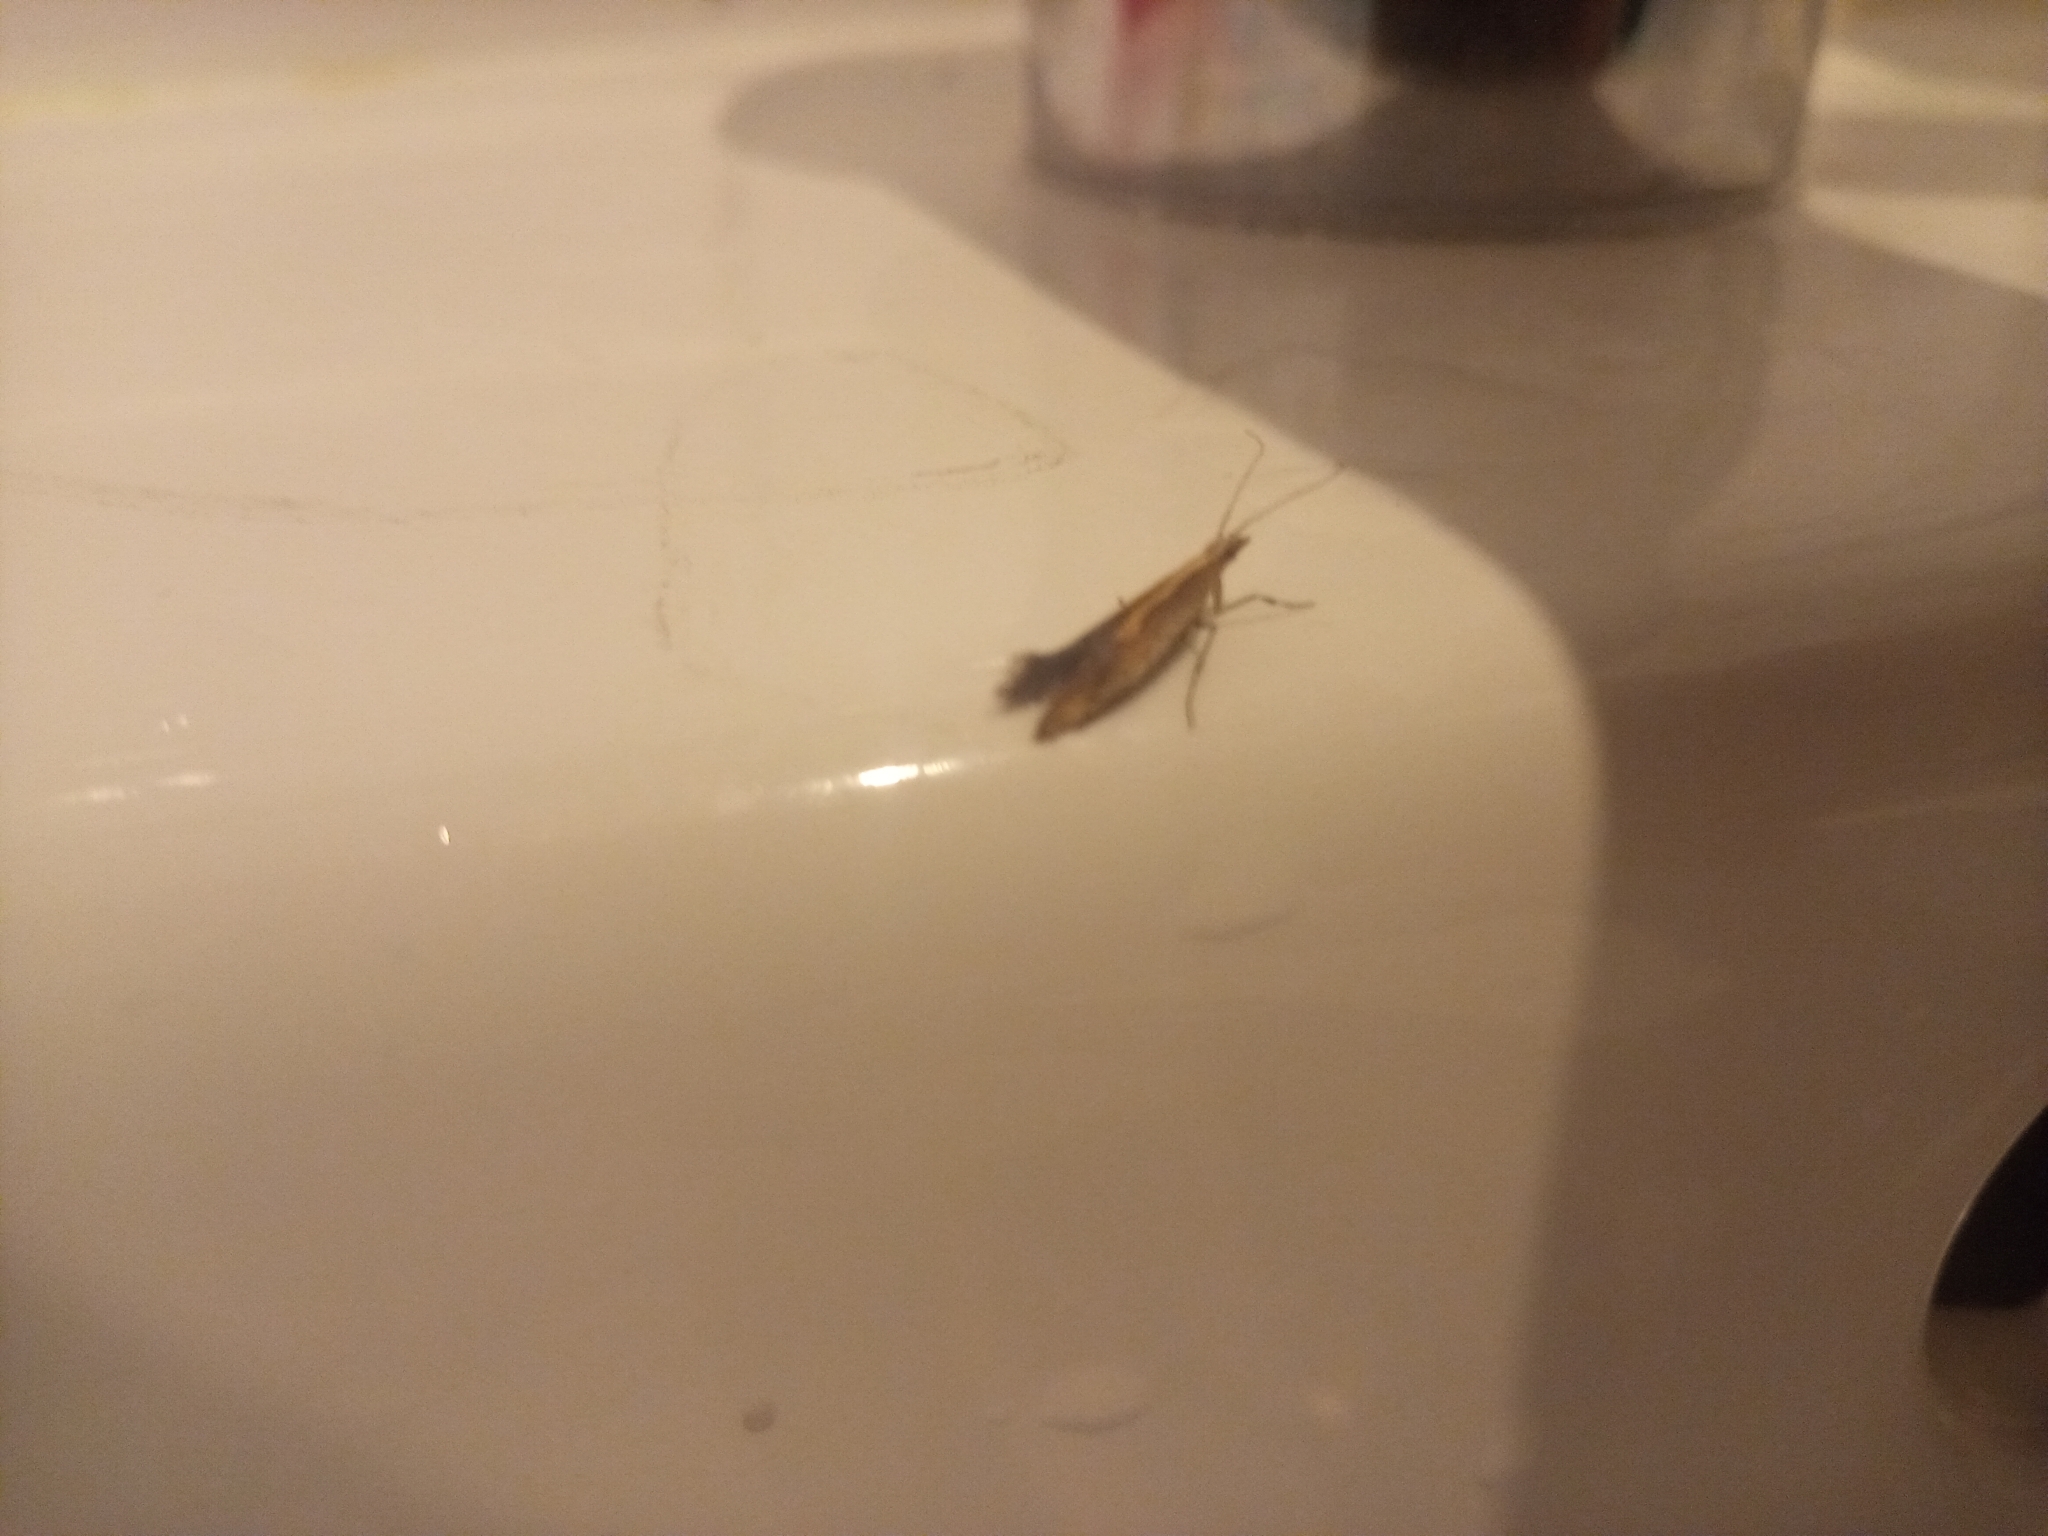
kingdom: Animalia
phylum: Arthropoda
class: Insecta
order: Lepidoptera
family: Plutellidae
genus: Plutella
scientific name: Plutella xylostella
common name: Diamond-back moth
